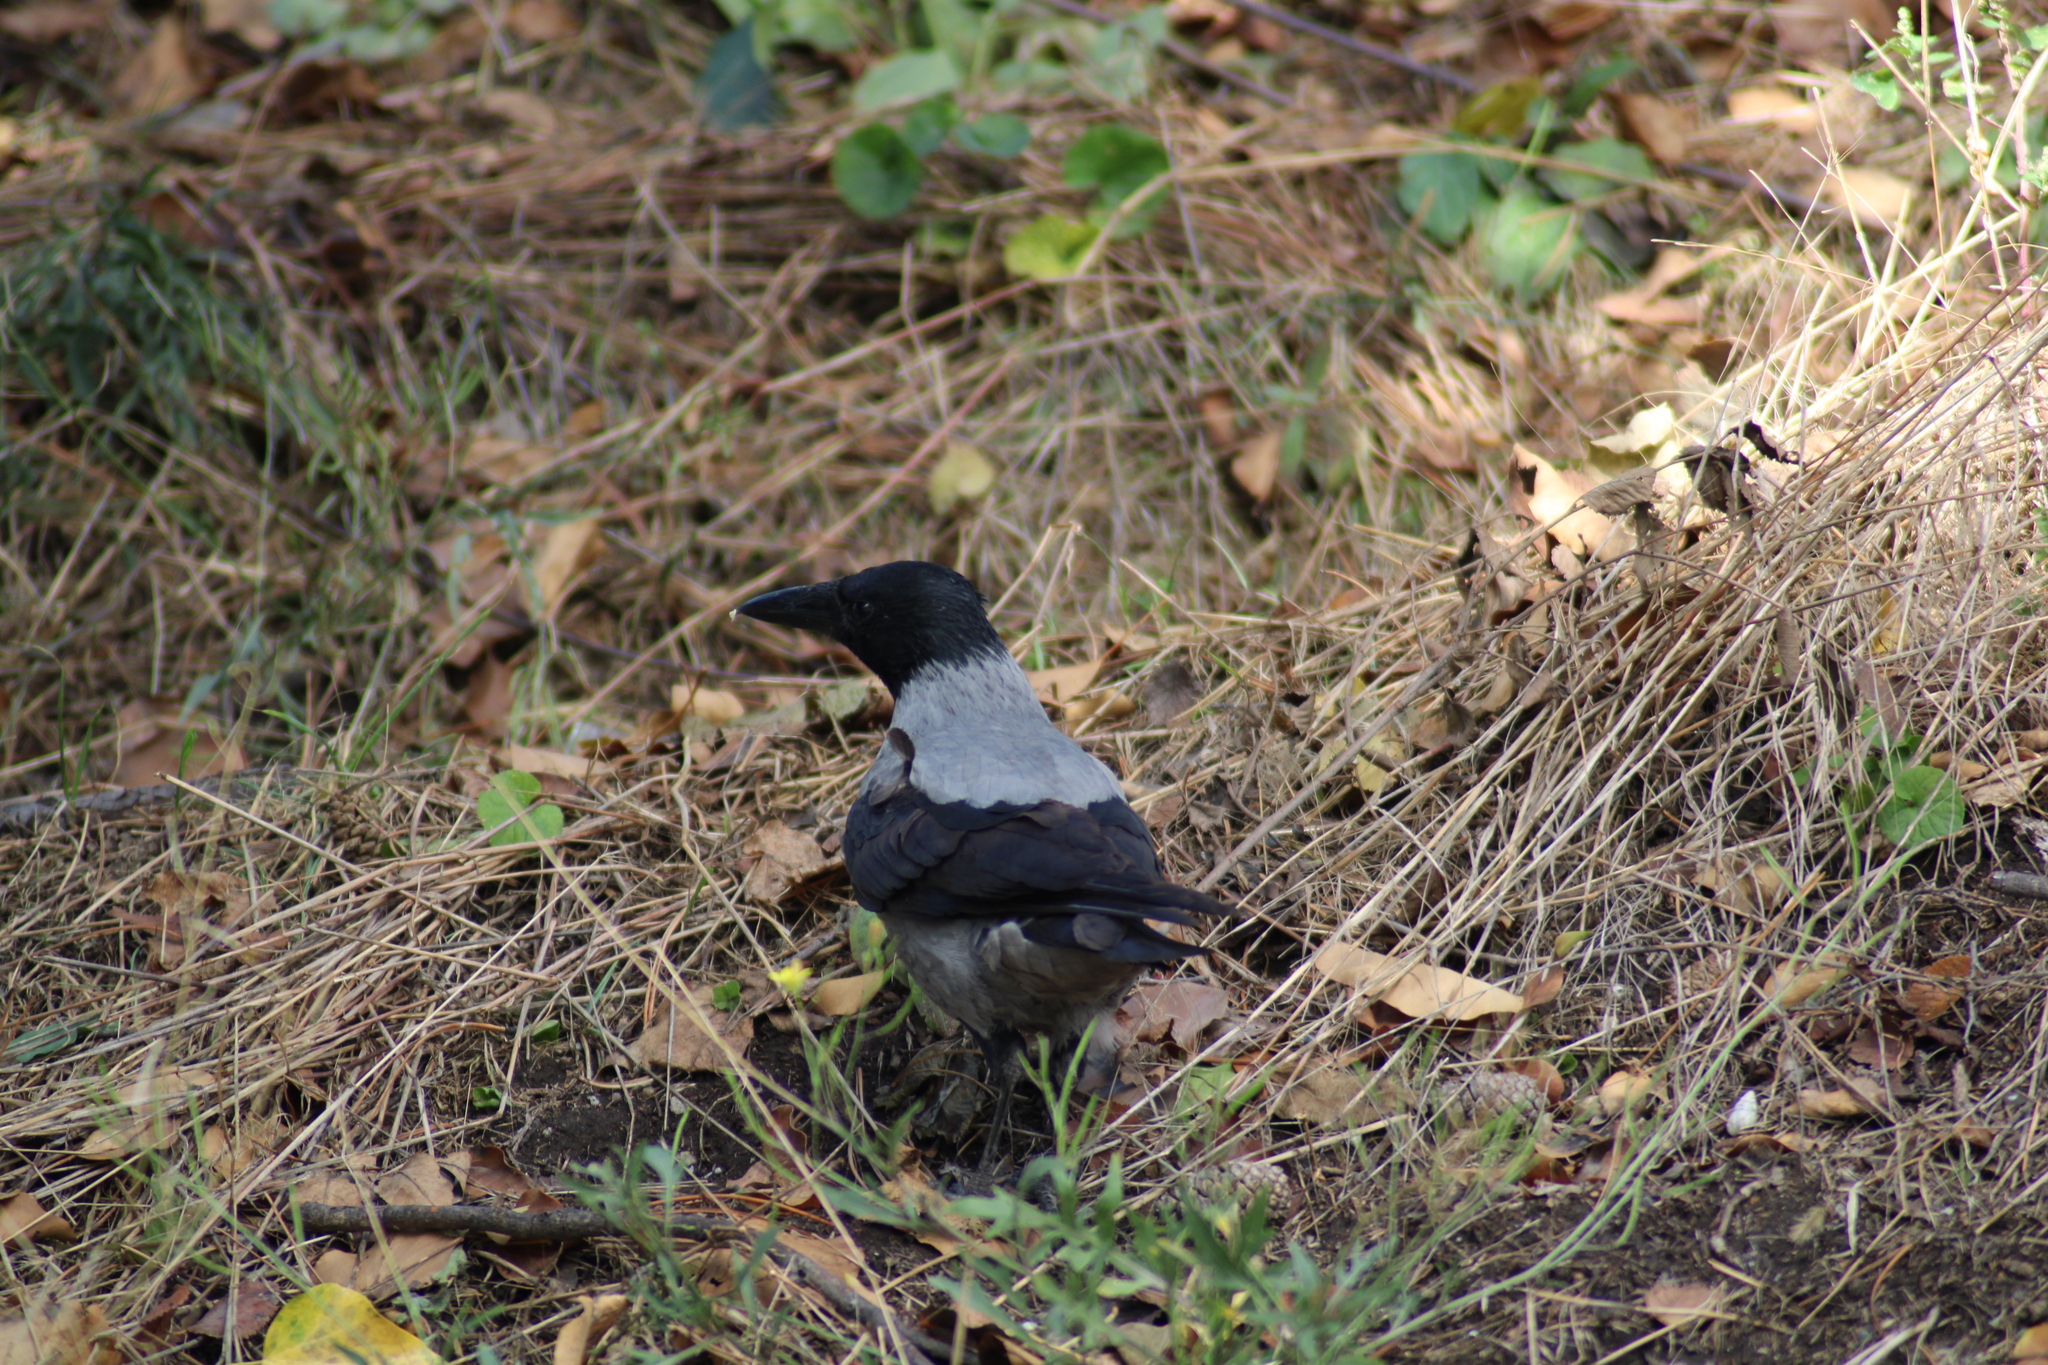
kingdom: Animalia
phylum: Chordata
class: Aves
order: Passeriformes
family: Corvidae
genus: Corvus
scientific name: Corvus cornix
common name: Hooded crow
